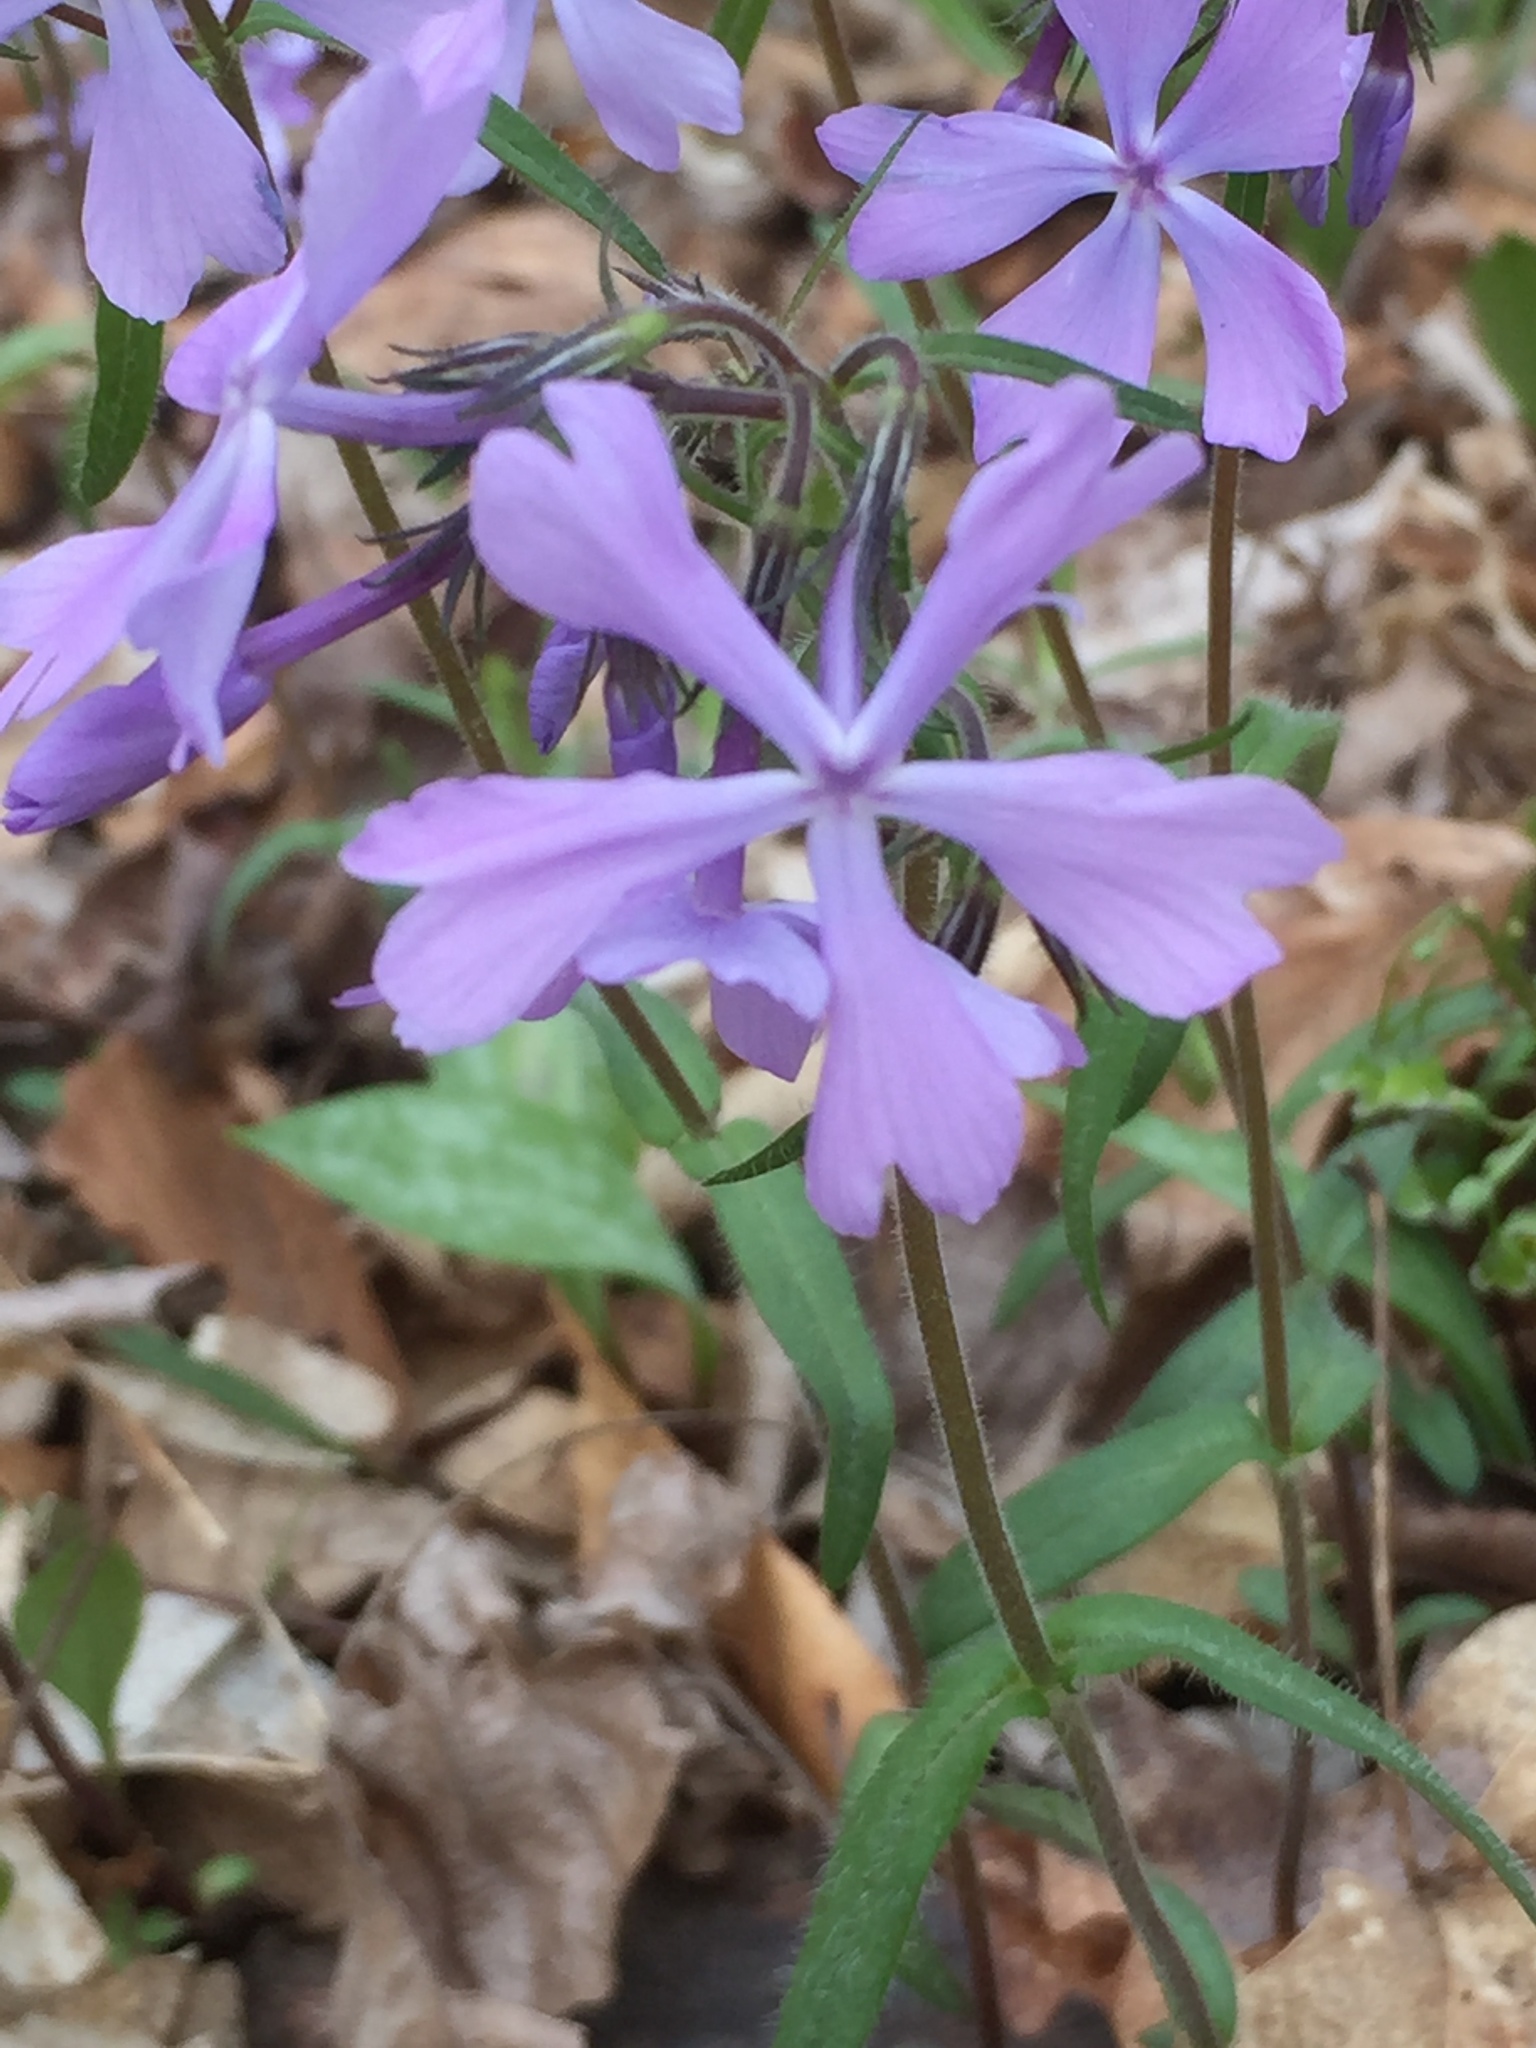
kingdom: Plantae
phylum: Tracheophyta
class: Magnoliopsida
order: Ericales
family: Polemoniaceae
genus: Phlox
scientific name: Phlox divaricata
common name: Blue phlox
